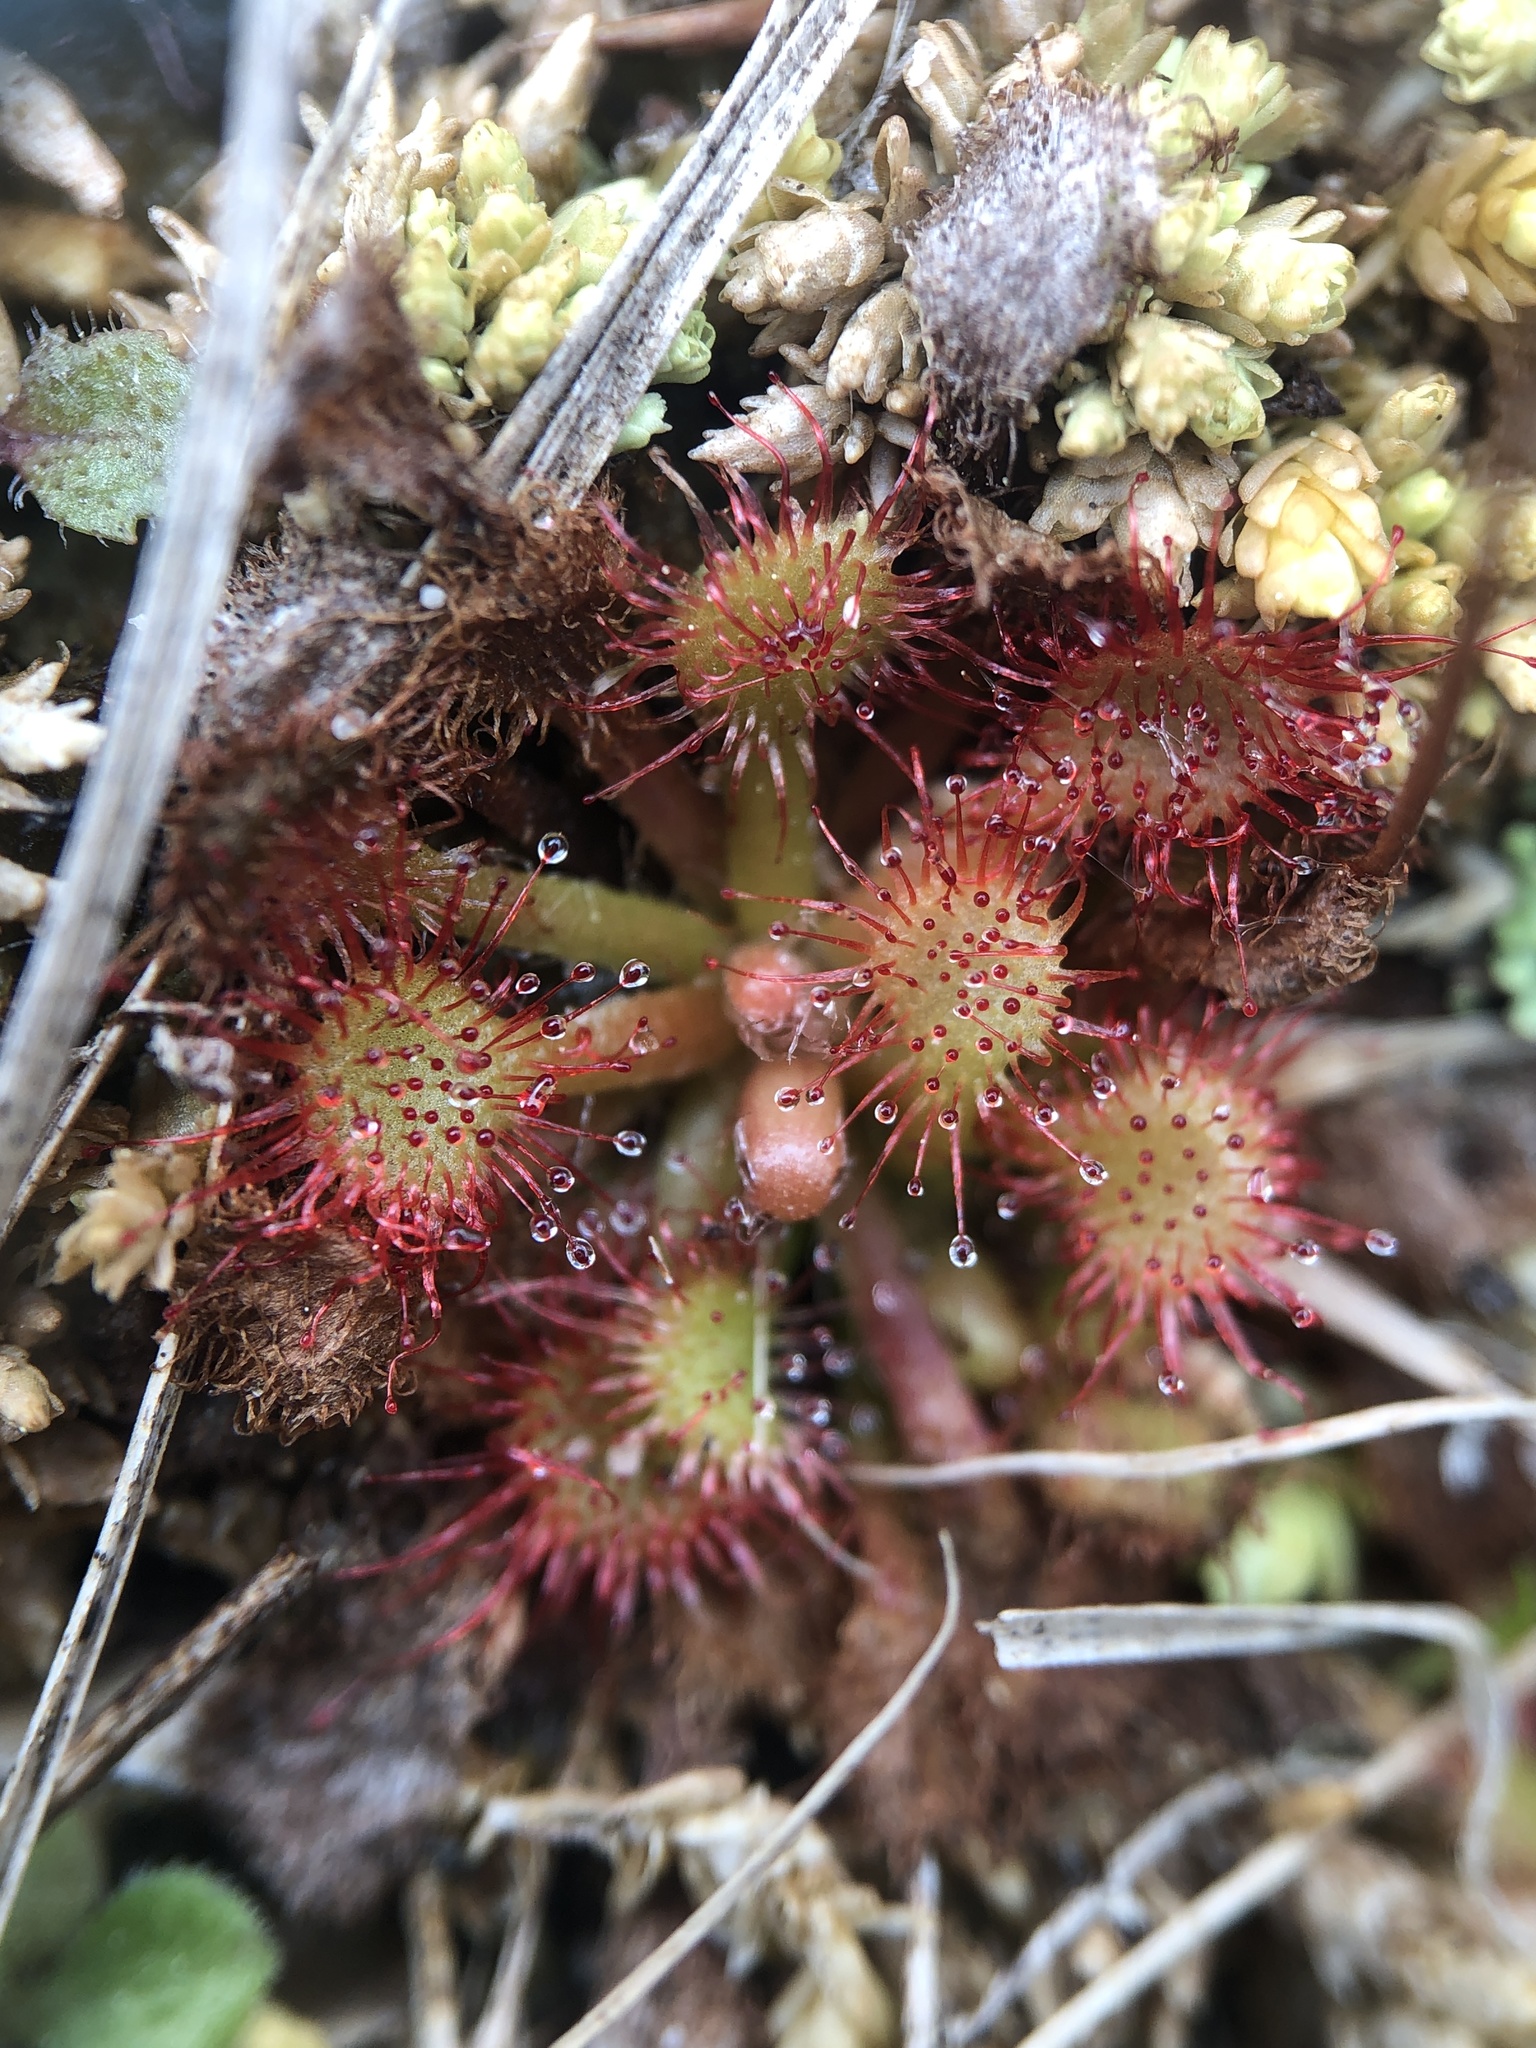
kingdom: Plantae
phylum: Tracheophyta
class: Magnoliopsida
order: Caryophyllales
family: Droseraceae
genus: Drosera
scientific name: Drosera capillaris
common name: Pink sundew
